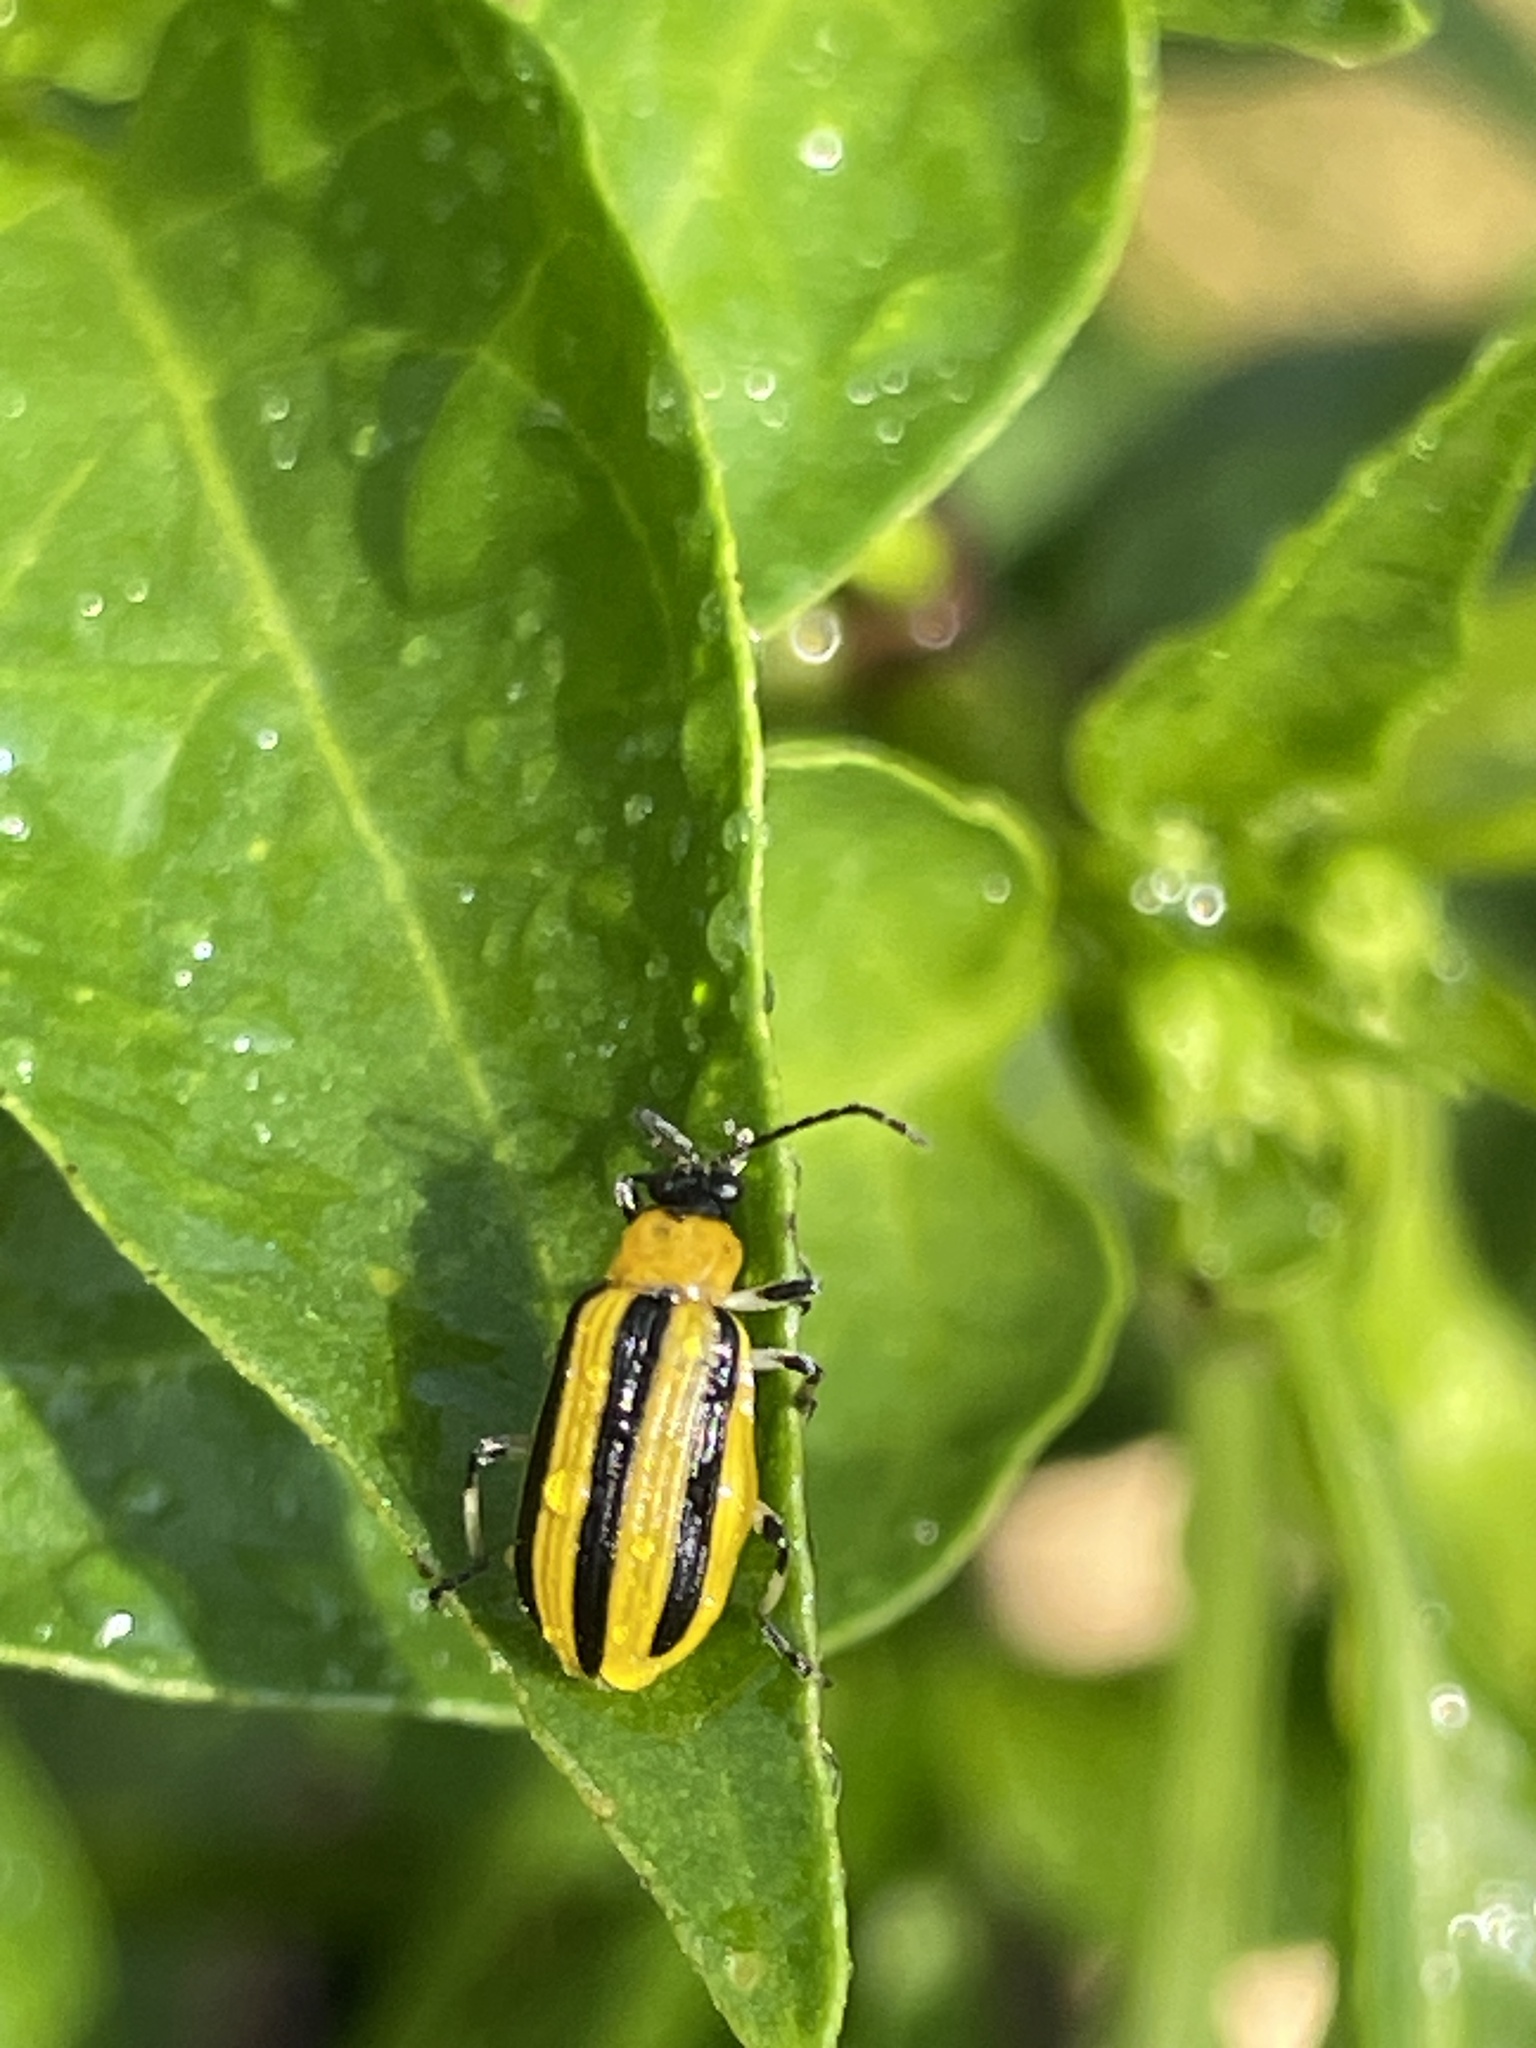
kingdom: Animalia
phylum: Arthropoda
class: Insecta
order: Coleoptera
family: Chrysomelidae
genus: Acalymma
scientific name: Acalymma vittatum
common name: Striped cucumber beetle
